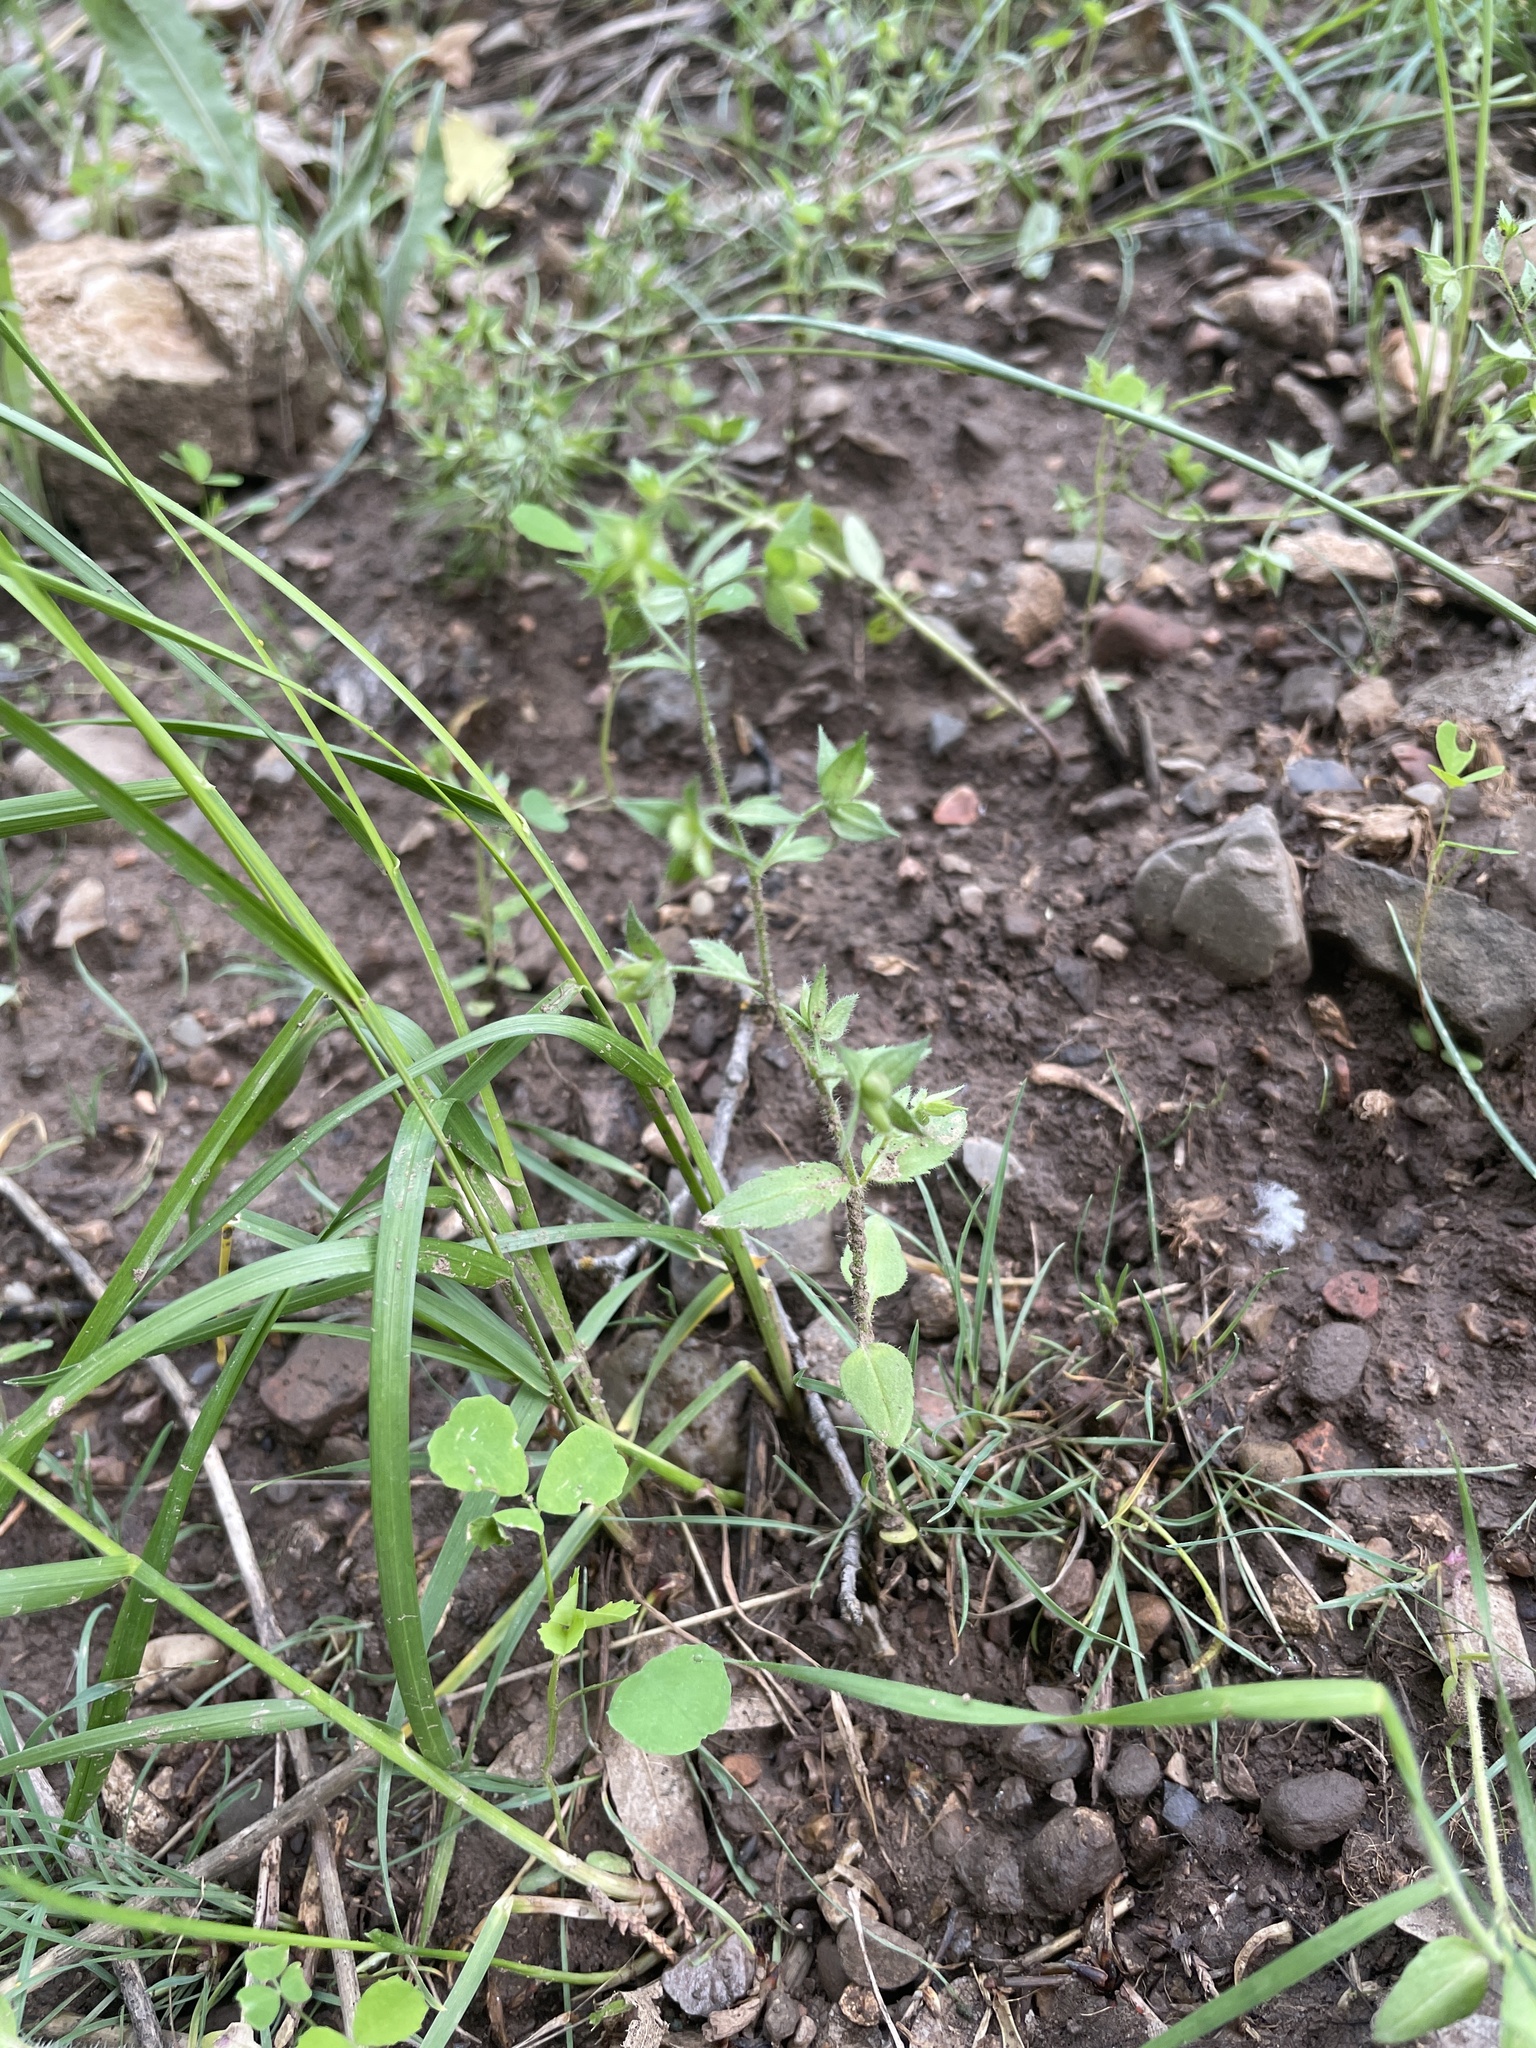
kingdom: Plantae
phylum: Tracheophyta
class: Magnoliopsida
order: Lamiales
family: Plantaginaceae
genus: Veronica
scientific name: Veronica biloba
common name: Twolobe speedwell
